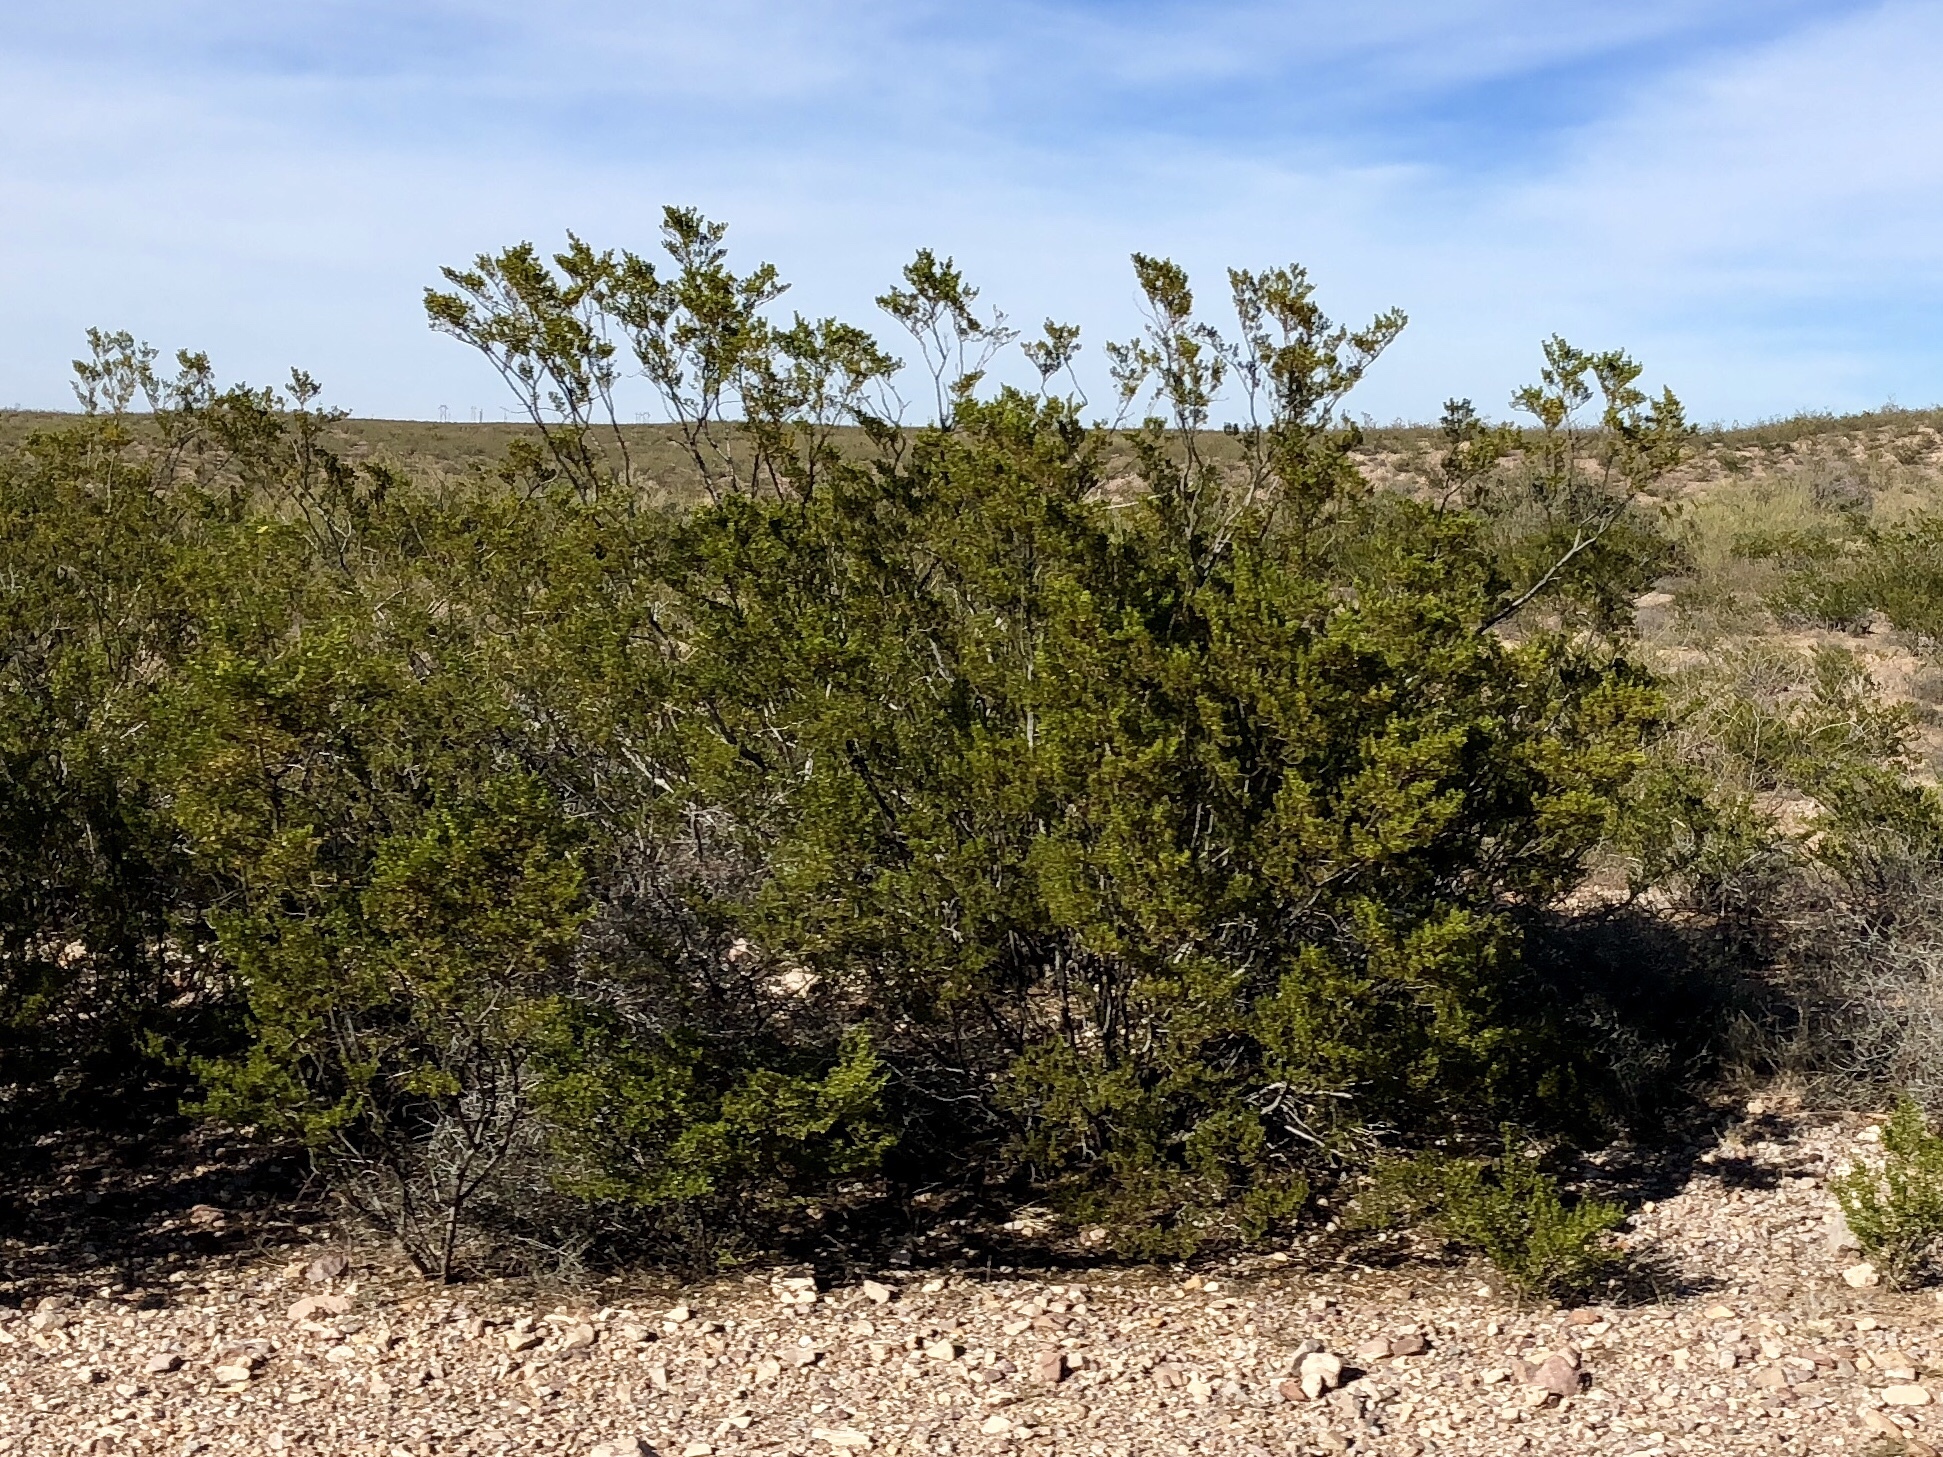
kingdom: Plantae
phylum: Tracheophyta
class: Magnoliopsida
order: Zygophyllales
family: Zygophyllaceae
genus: Larrea
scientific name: Larrea tridentata
